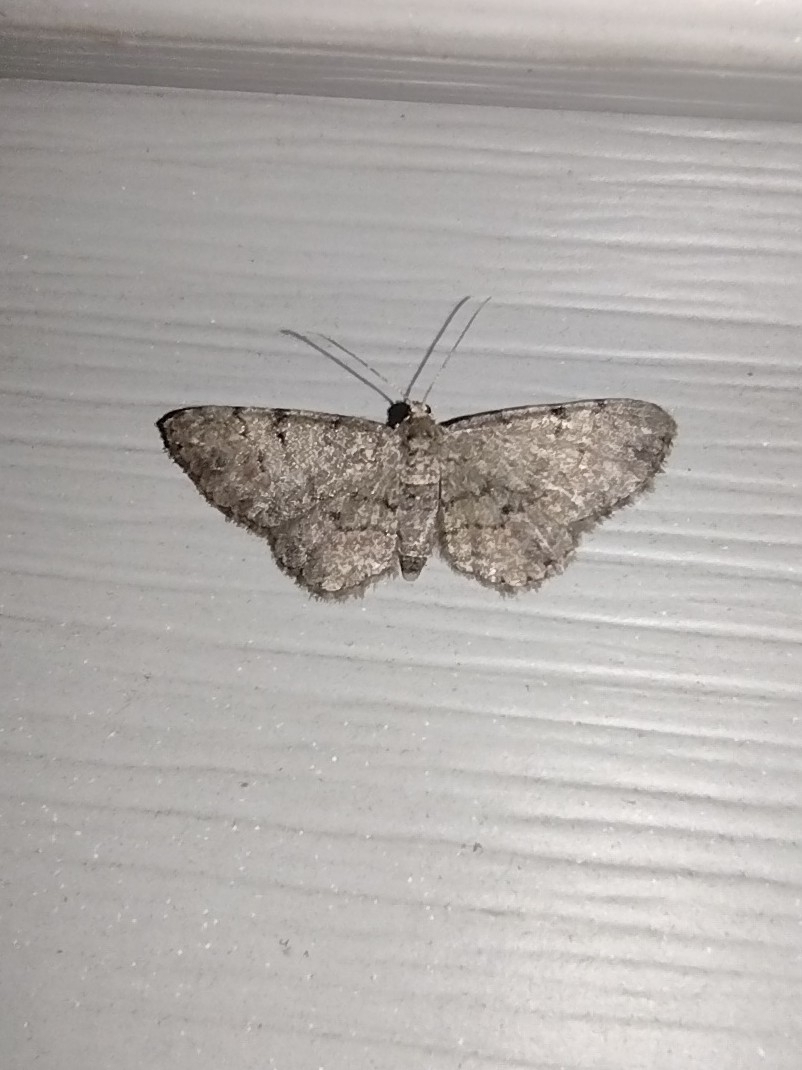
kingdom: Animalia
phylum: Arthropoda
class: Insecta
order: Lepidoptera
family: Geometridae
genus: Glenoides
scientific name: Glenoides texanaria
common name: Texas gray
